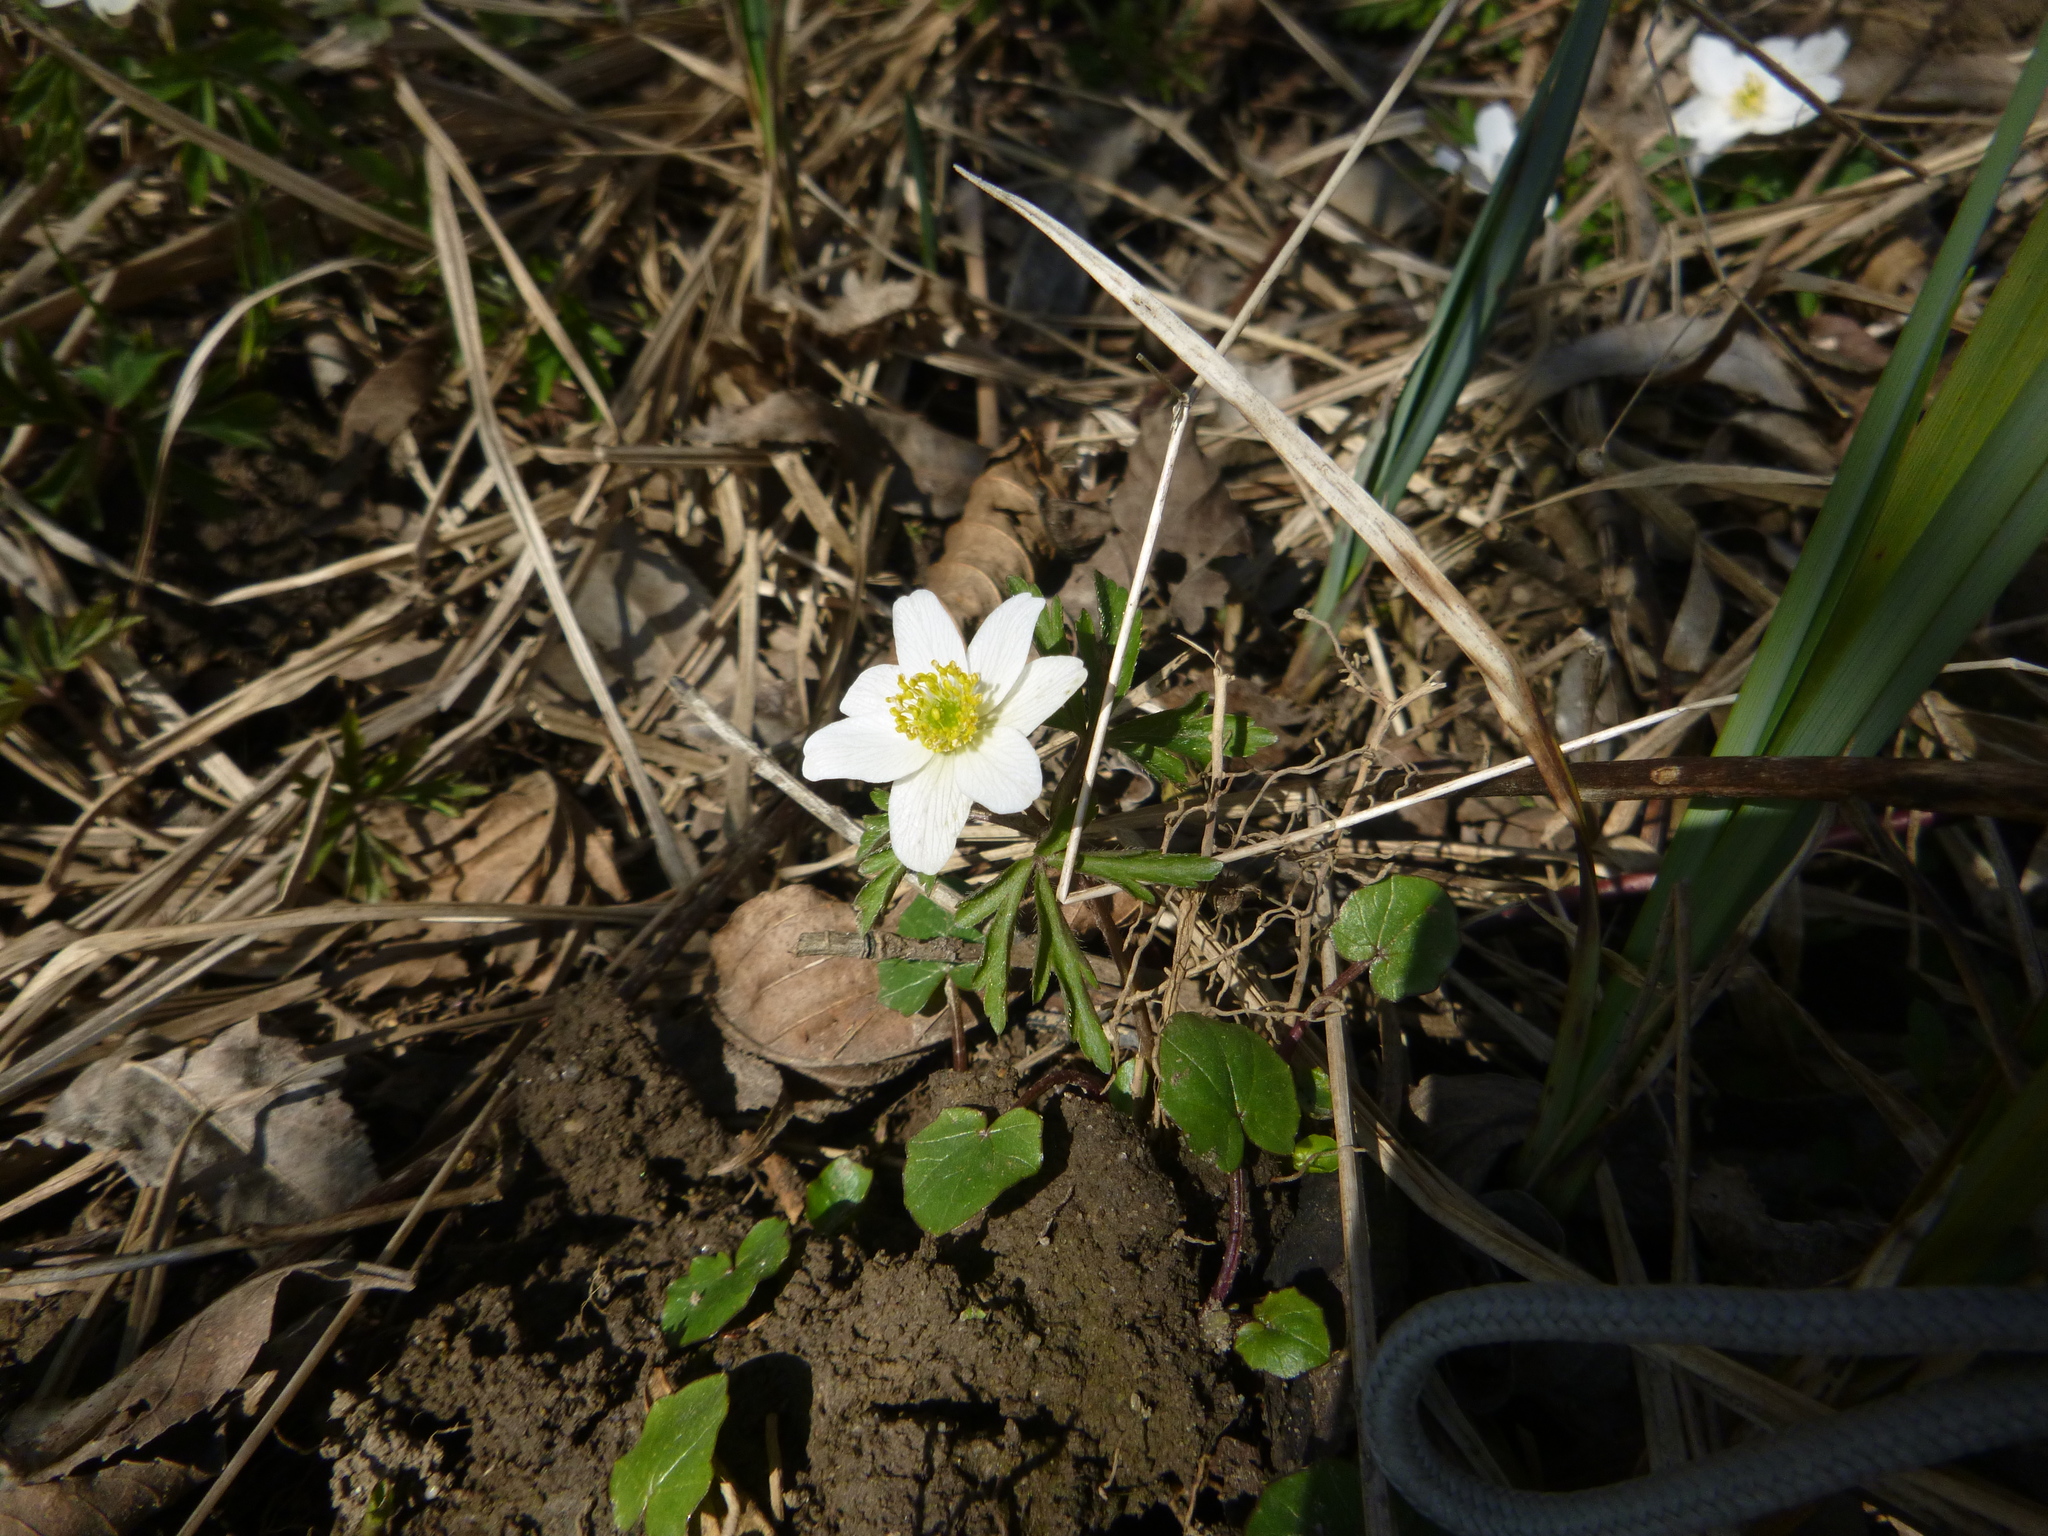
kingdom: Plantae
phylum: Tracheophyta
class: Magnoliopsida
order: Ranunculales
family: Ranunculaceae
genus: Anemone
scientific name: Anemone nemorosa
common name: Wood anemone
